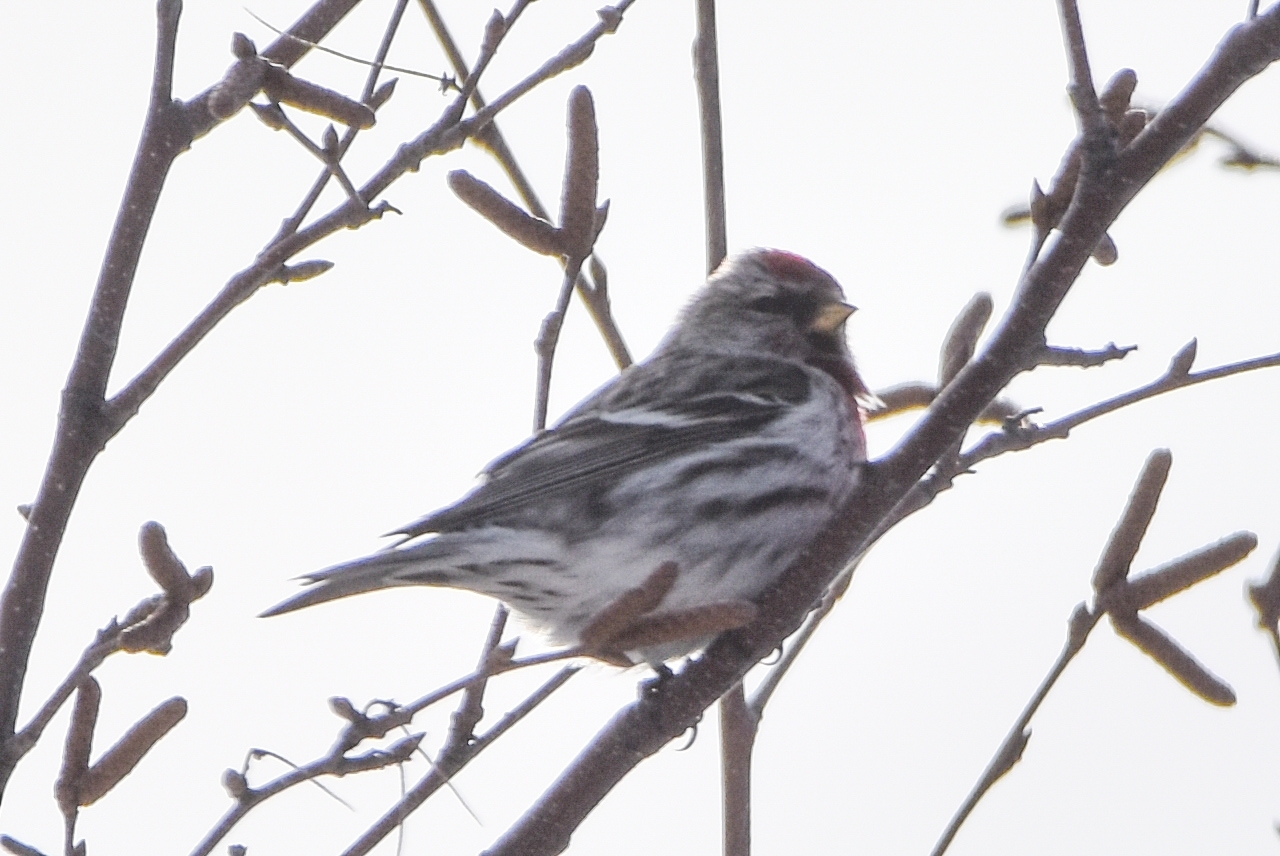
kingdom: Animalia
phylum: Chordata
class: Aves
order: Passeriformes
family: Fringillidae
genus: Acanthis
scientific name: Acanthis flammea
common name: Common redpoll
